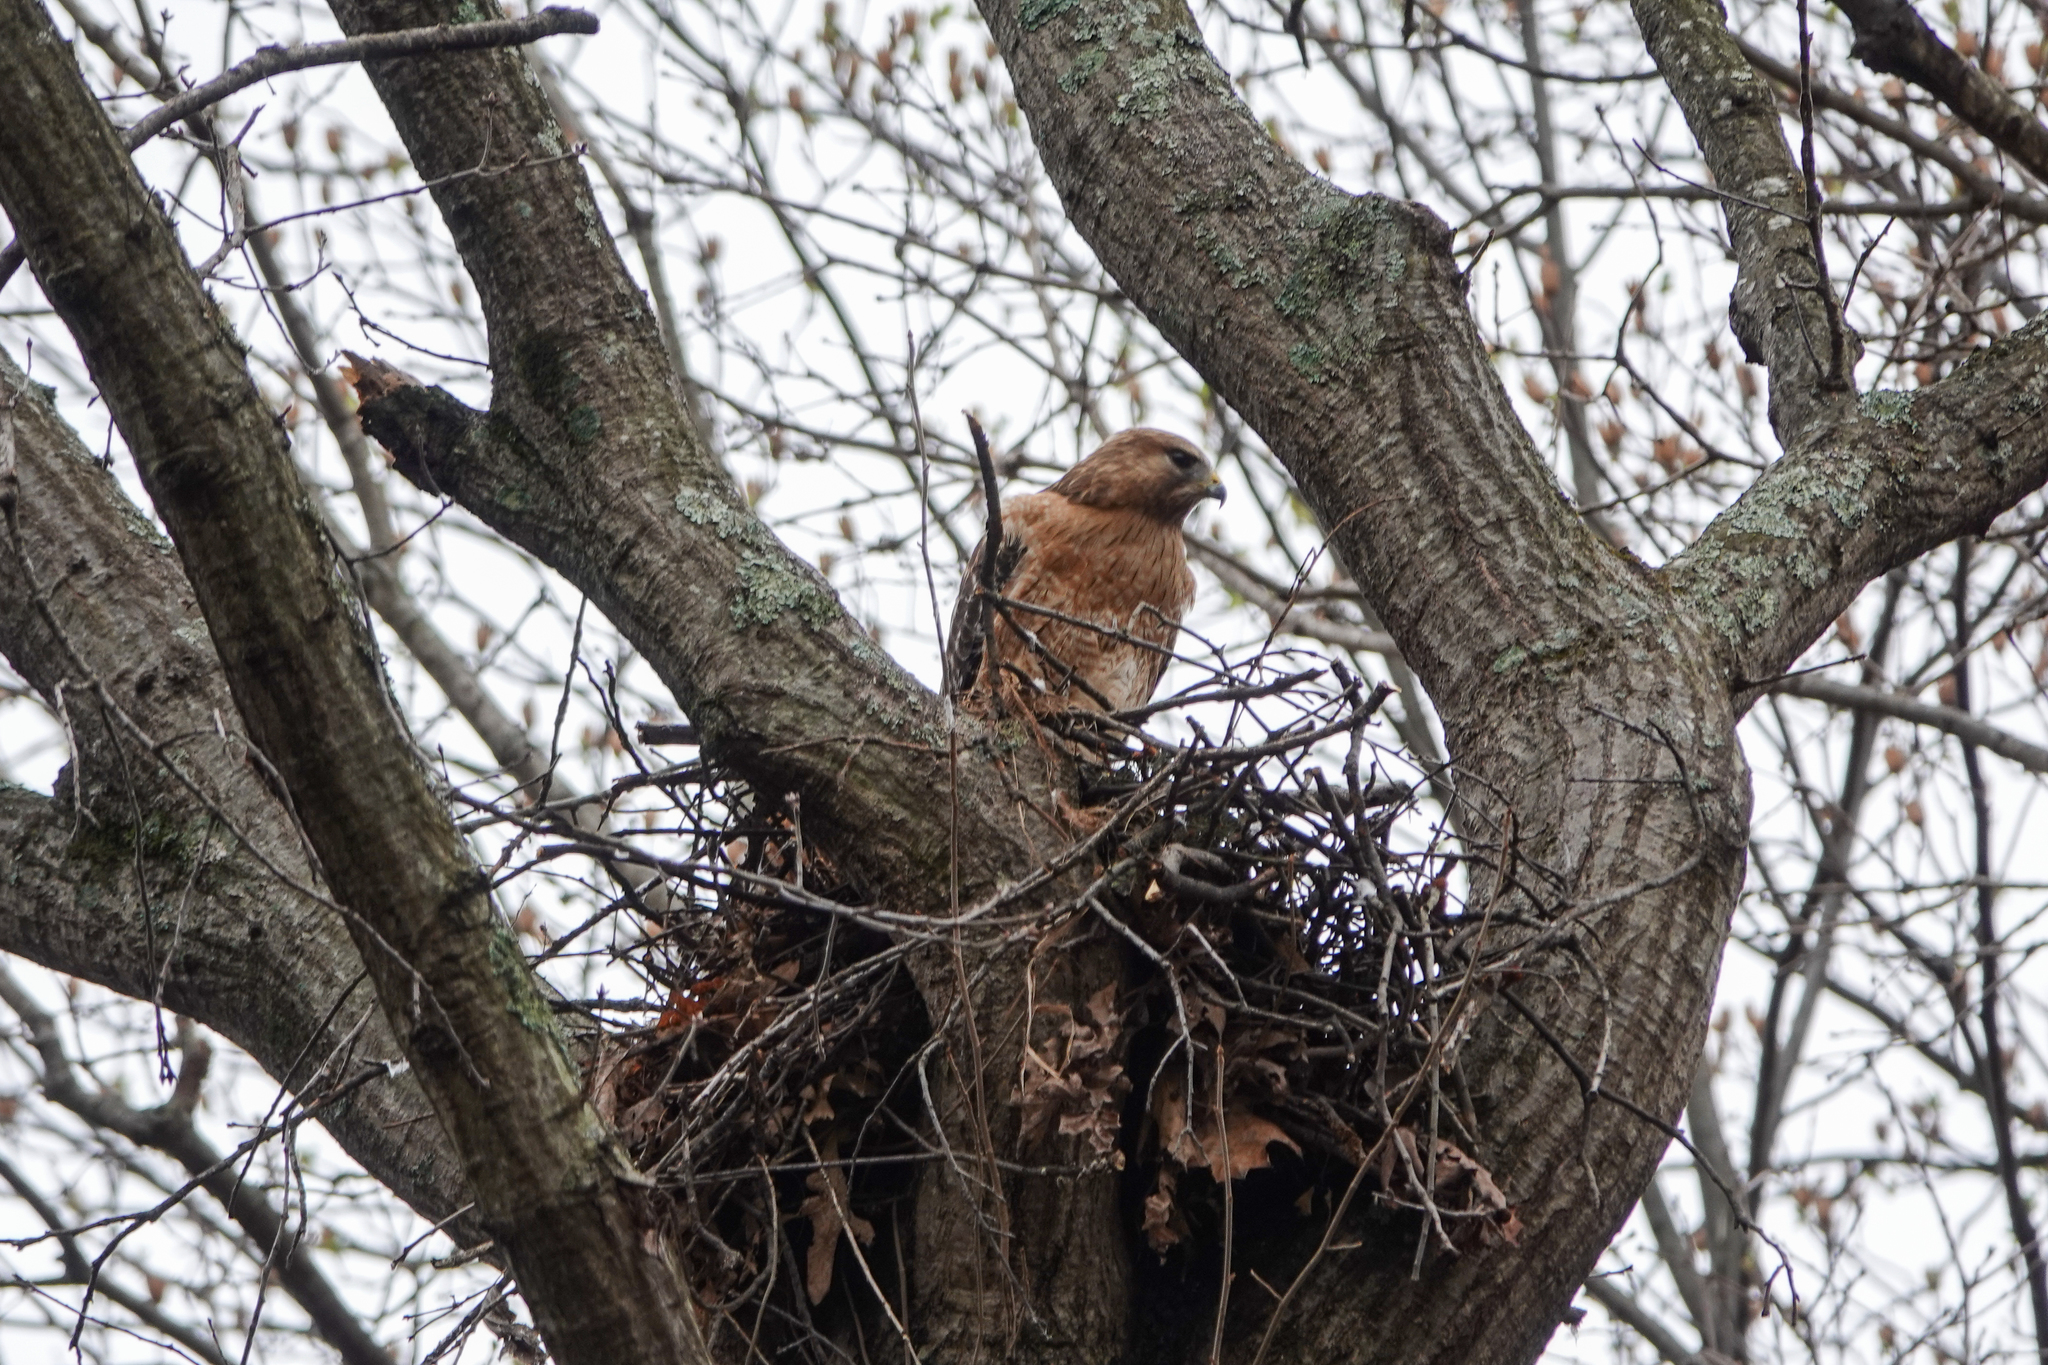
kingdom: Animalia
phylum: Chordata
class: Aves
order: Accipitriformes
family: Accipitridae
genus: Buteo
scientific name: Buteo lineatus
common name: Red-shouldered hawk
